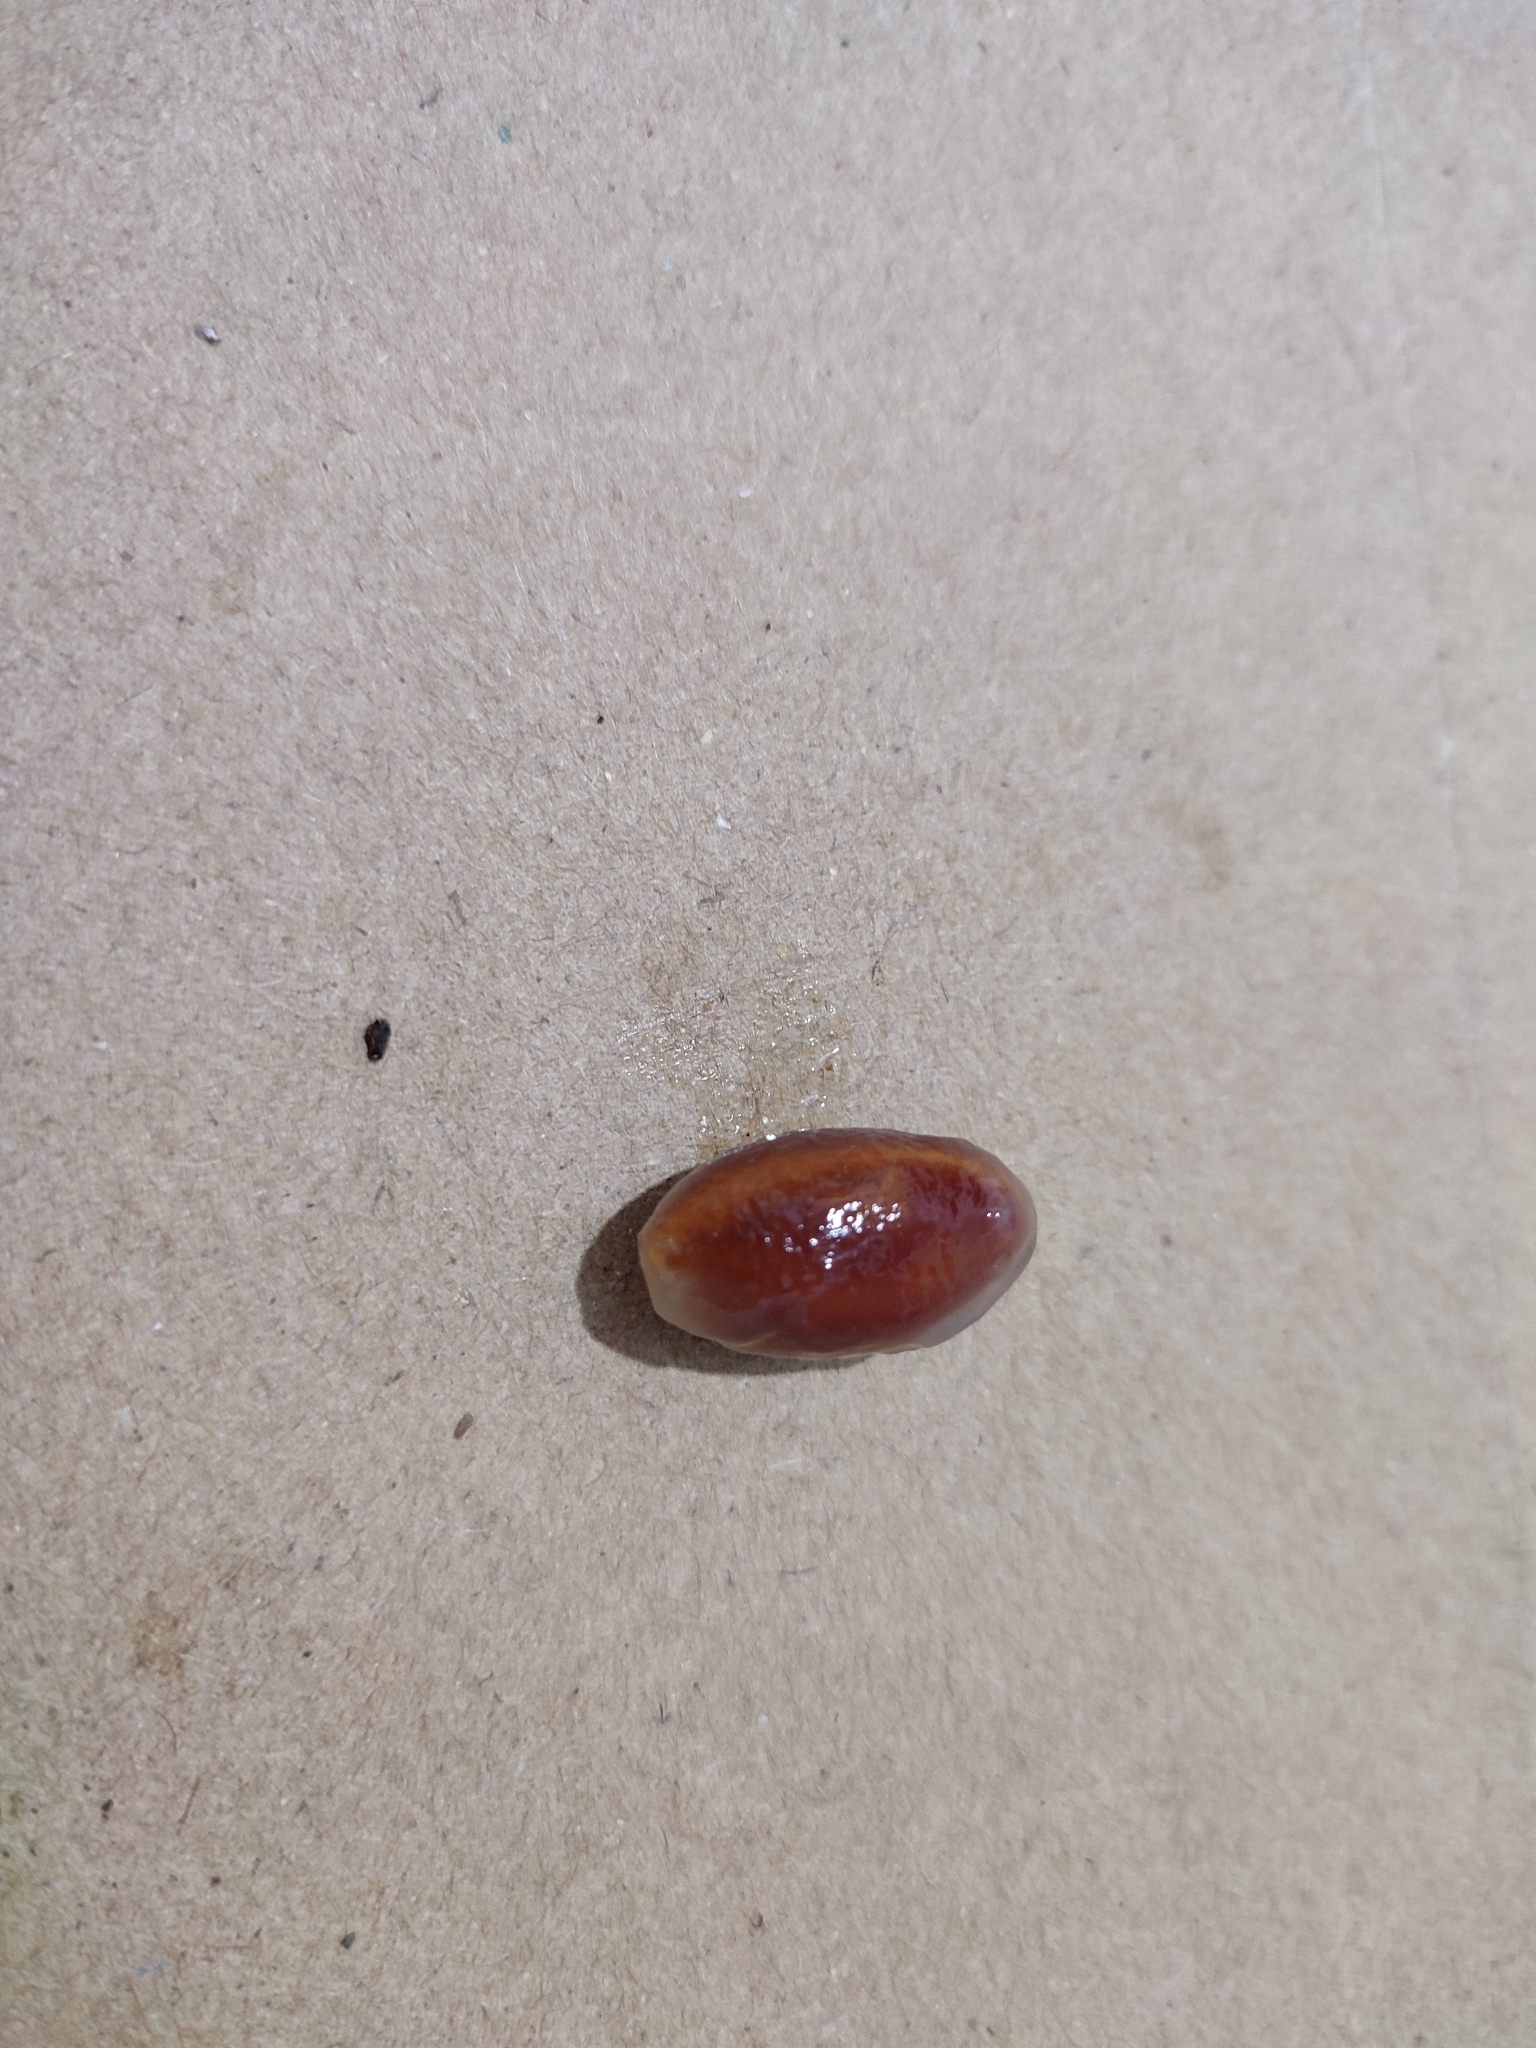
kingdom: Plantae
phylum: Tracheophyta
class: Magnoliopsida
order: Ericales
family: Ebenaceae
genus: Diospyros
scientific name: Diospyros paniculata
